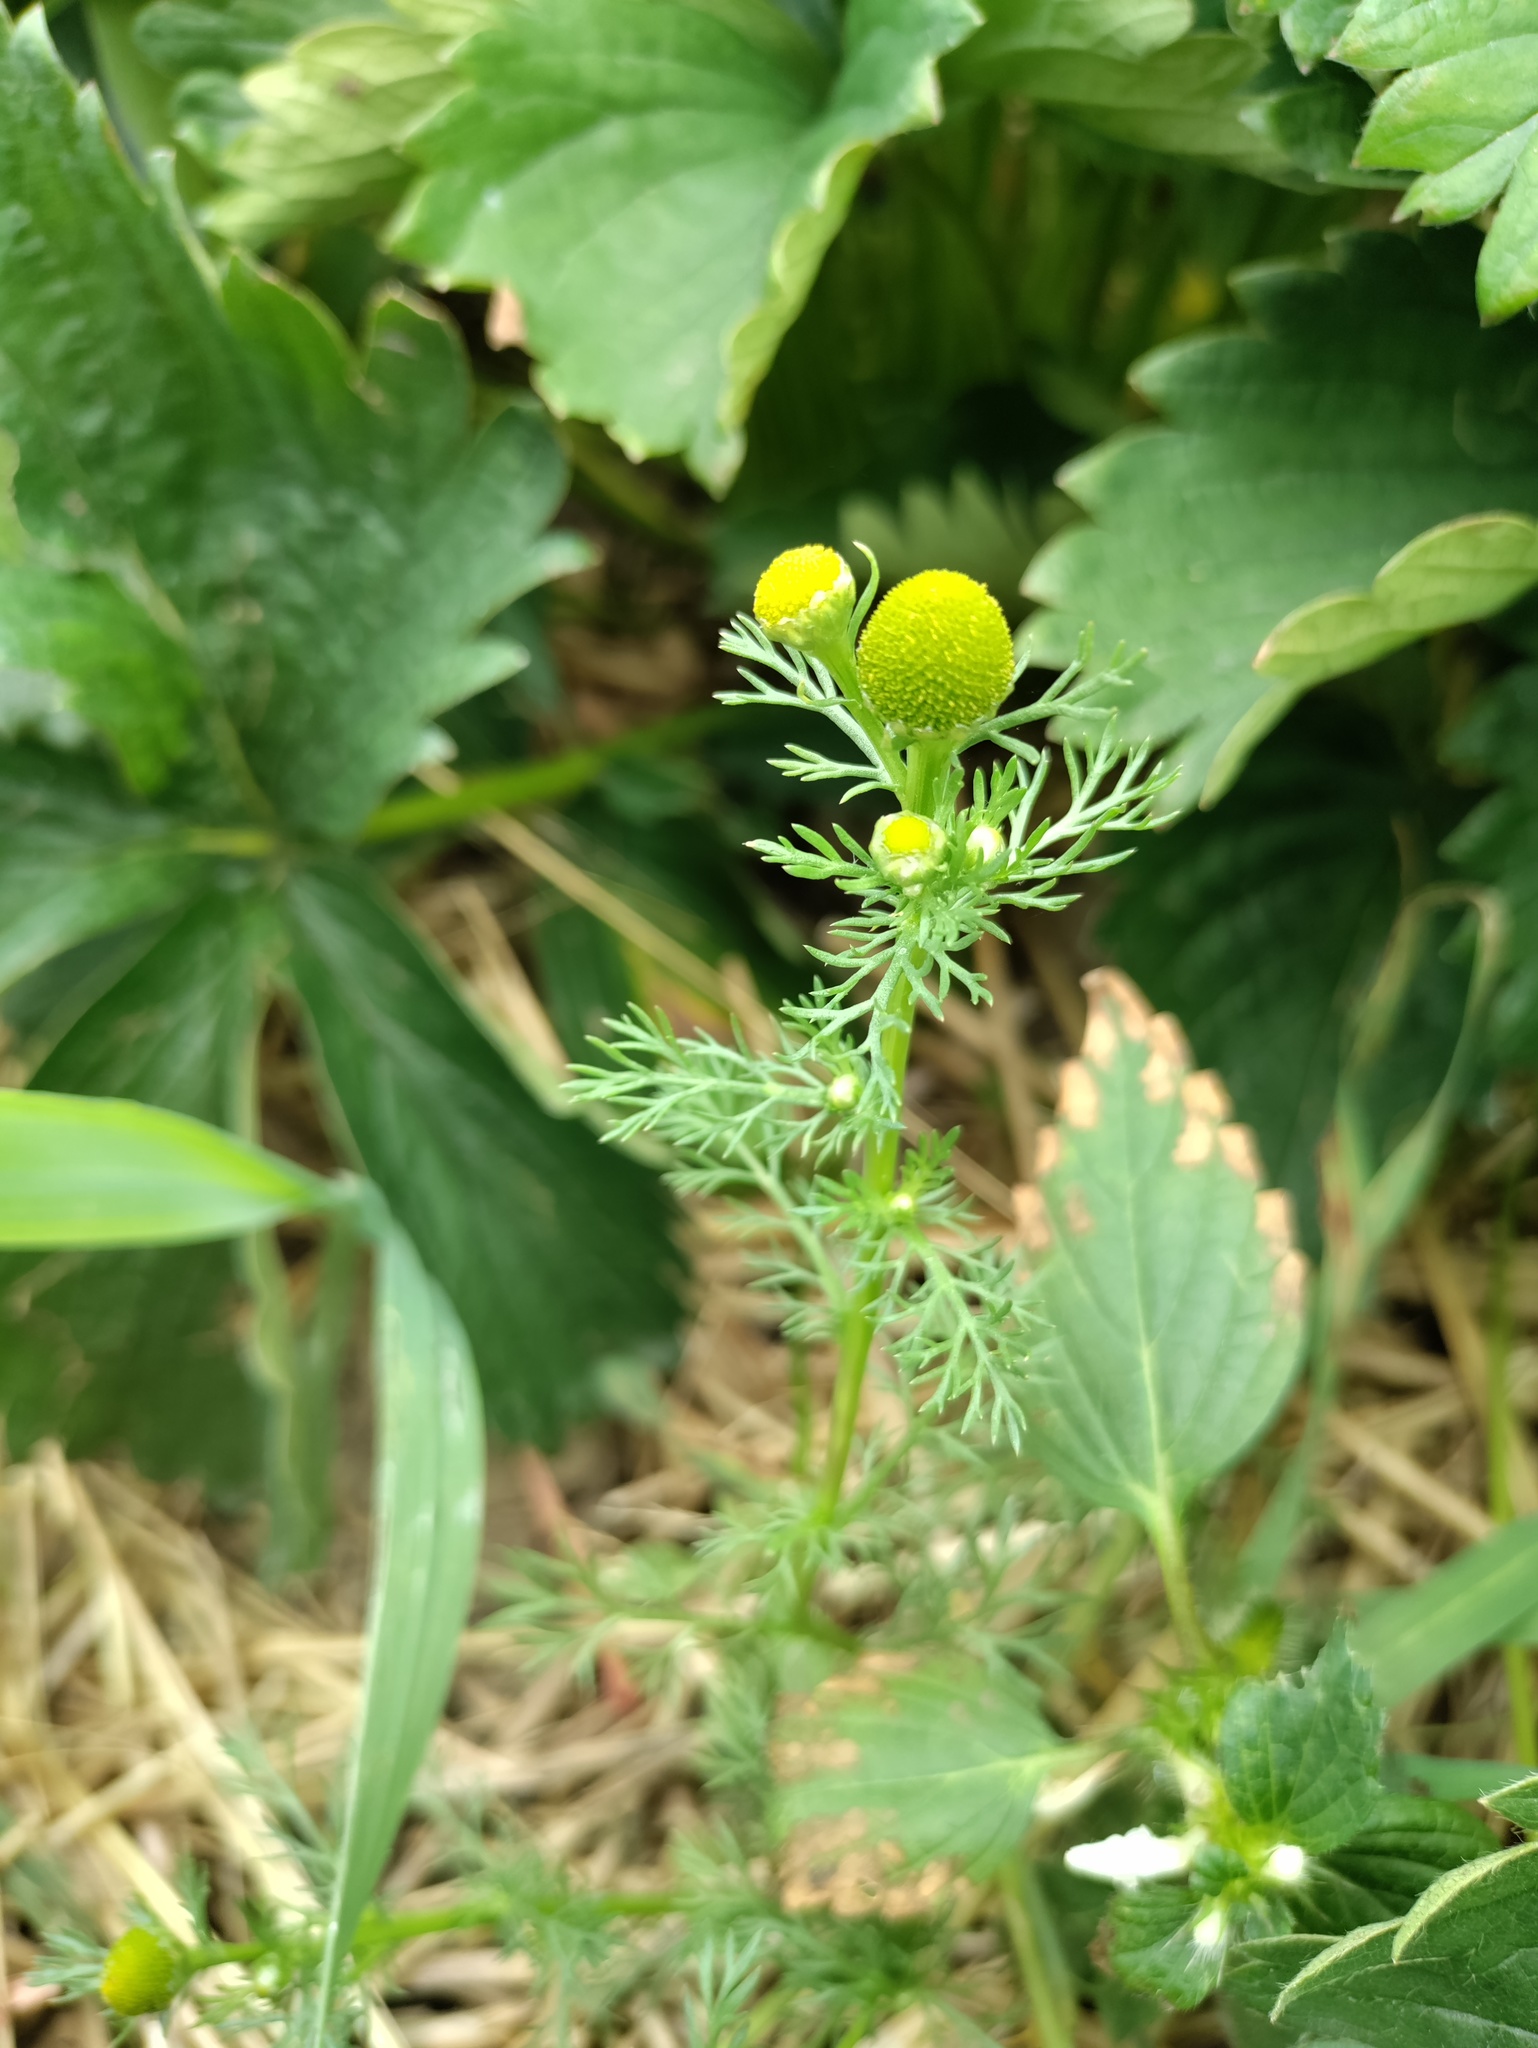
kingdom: Plantae
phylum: Tracheophyta
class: Magnoliopsida
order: Asterales
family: Asteraceae
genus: Matricaria
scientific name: Matricaria discoidea
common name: Disc mayweed
